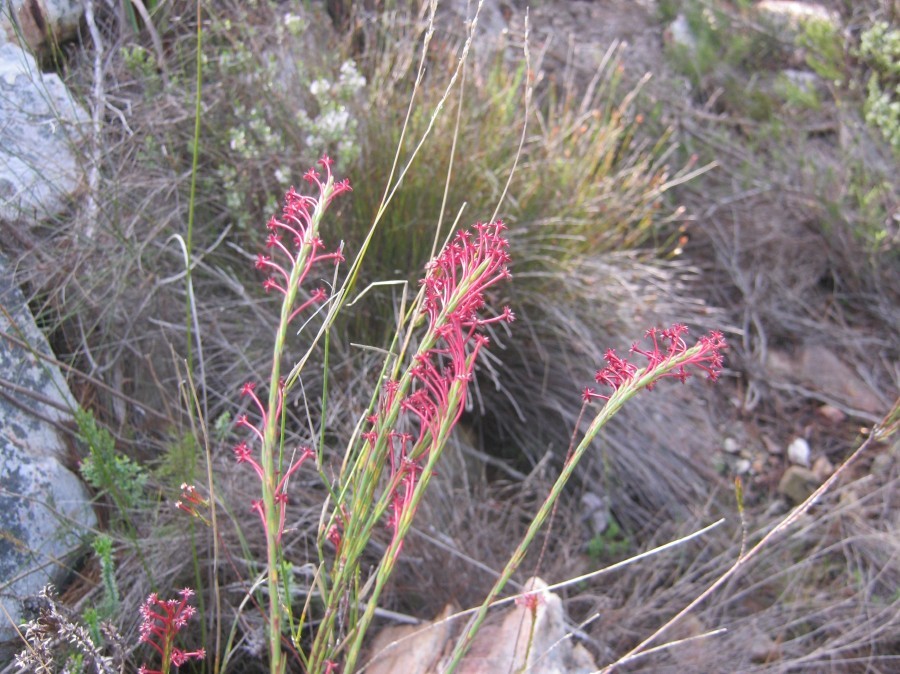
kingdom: Plantae
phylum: Tracheophyta
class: Magnoliopsida
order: Malvales
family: Thymelaeaceae
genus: Struthiola
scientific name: Struthiola macowanii
